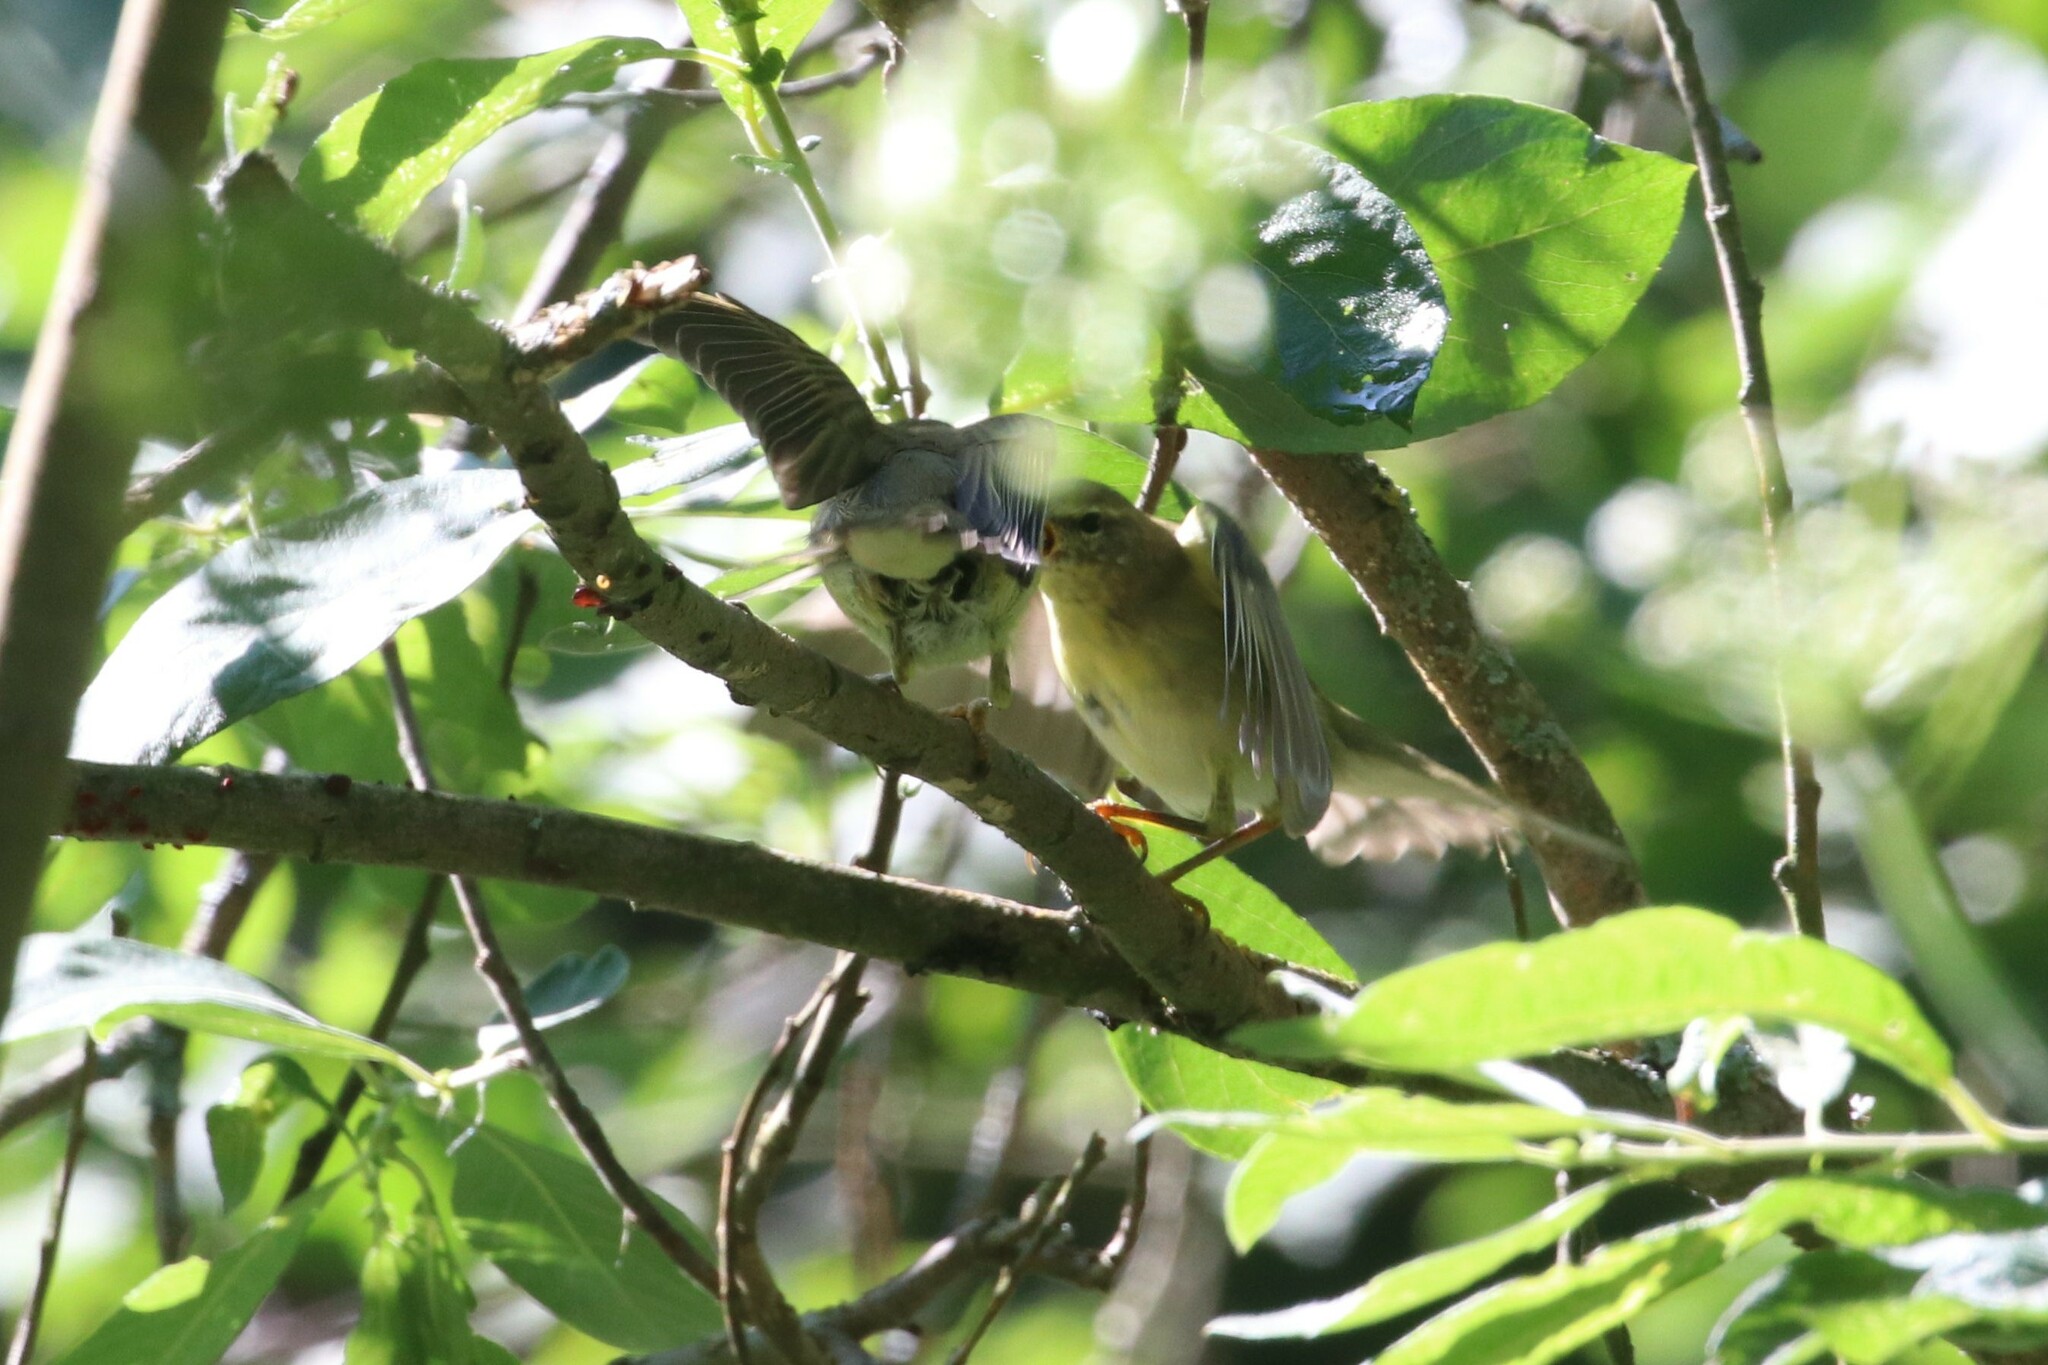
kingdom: Animalia
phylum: Chordata
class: Aves
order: Passeriformes
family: Phylloscopidae
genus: Phylloscopus
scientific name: Phylloscopus trochilus
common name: Willow warbler
